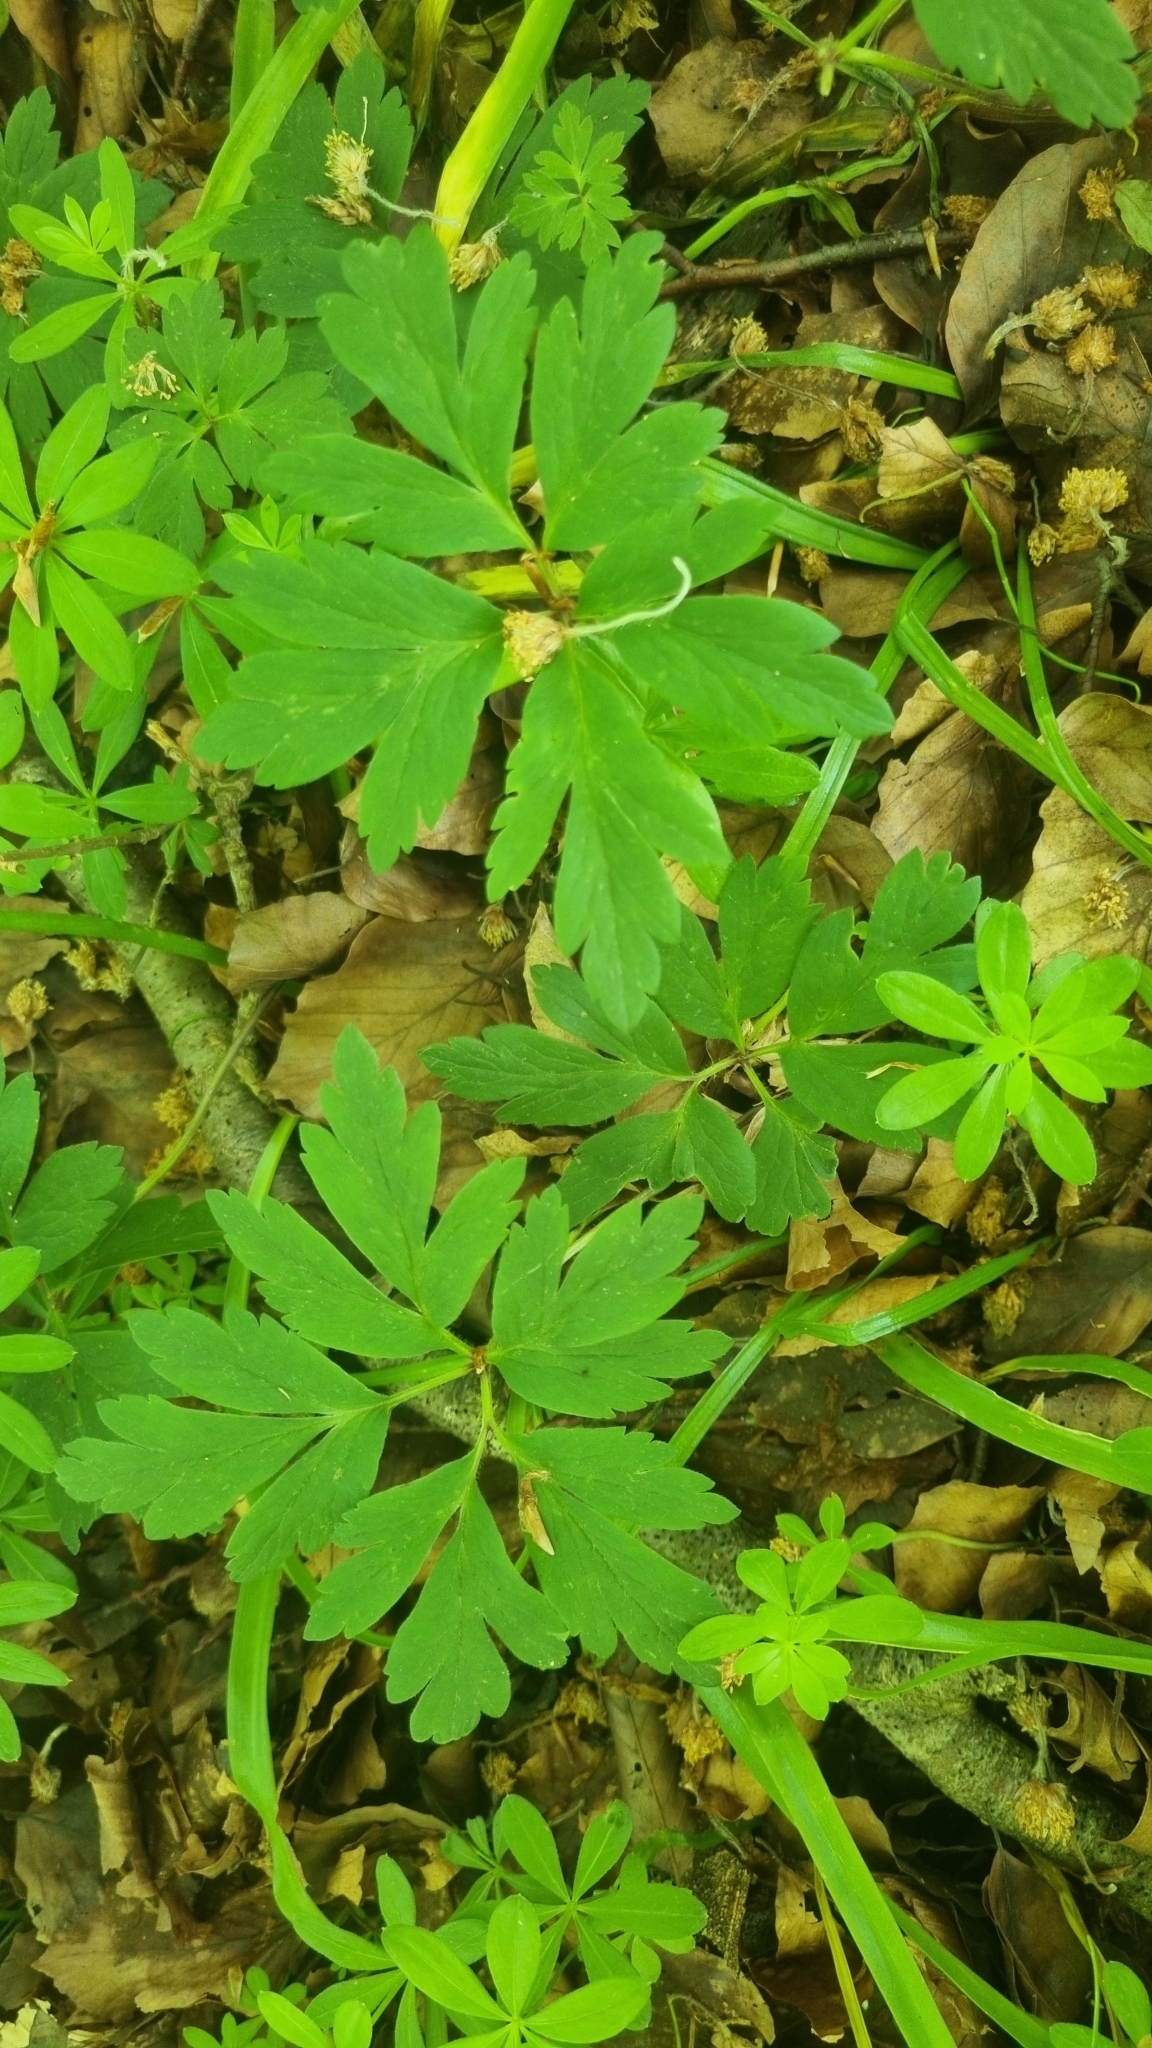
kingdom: Plantae
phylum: Tracheophyta
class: Magnoliopsida
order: Ranunculales
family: Ranunculaceae
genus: Anemone
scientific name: Anemone nemorosa
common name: Wood anemone
